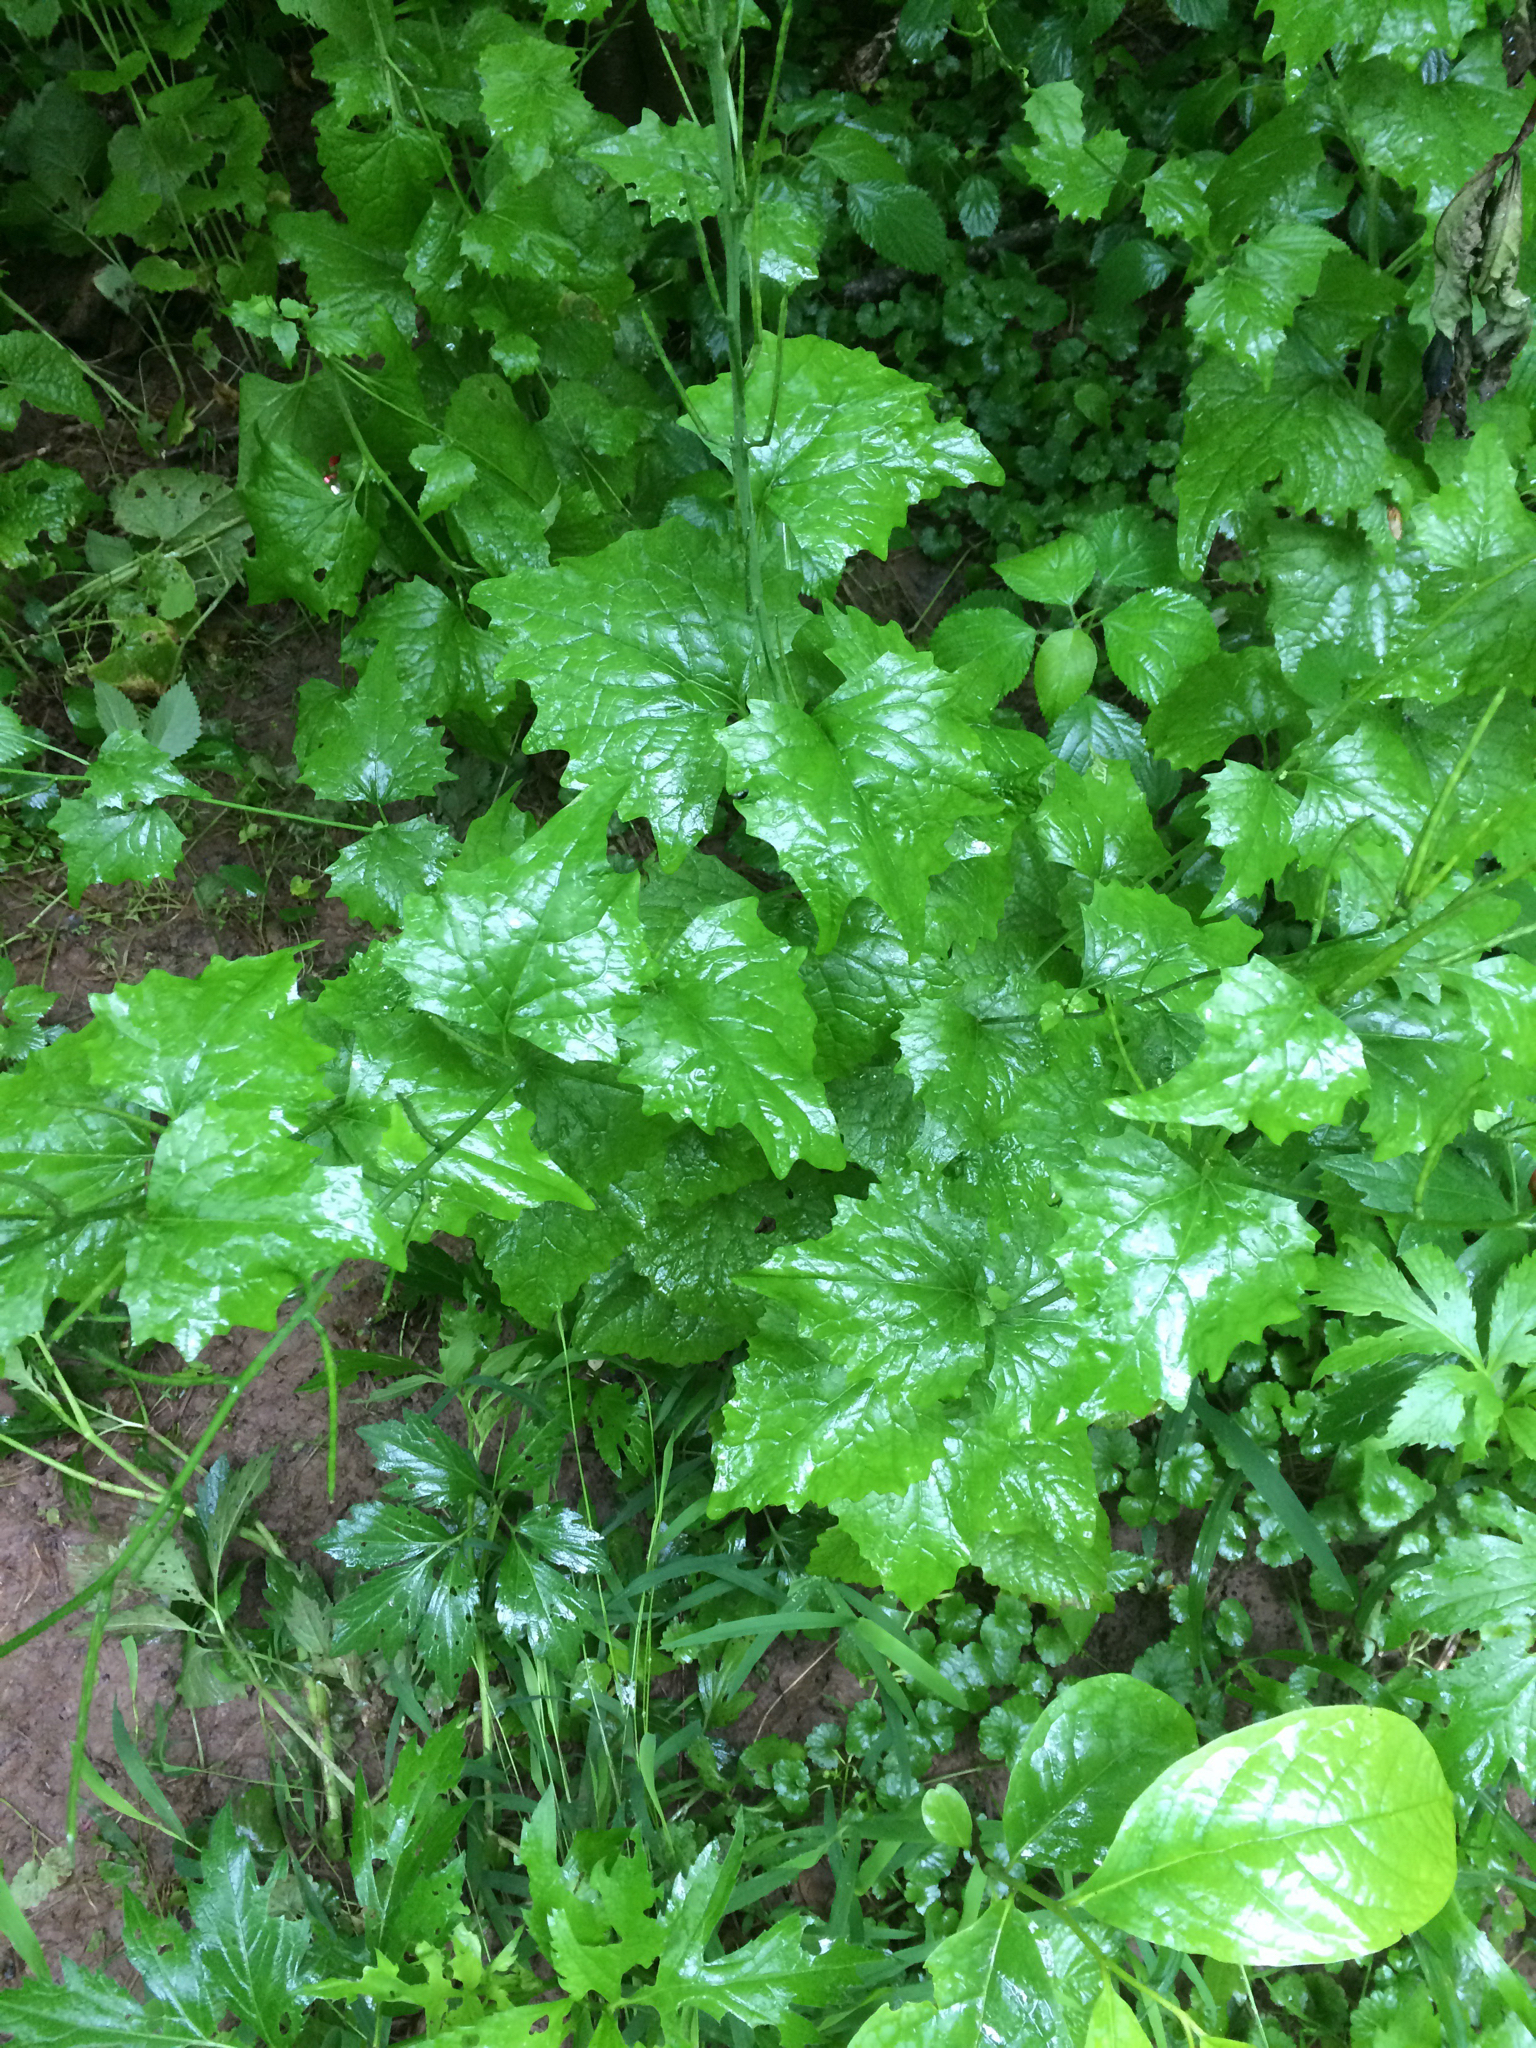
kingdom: Plantae
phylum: Tracheophyta
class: Magnoliopsida
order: Brassicales
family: Brassicaceae
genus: Alliaria
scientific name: Alliaria petiolata
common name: Garlic mustard
